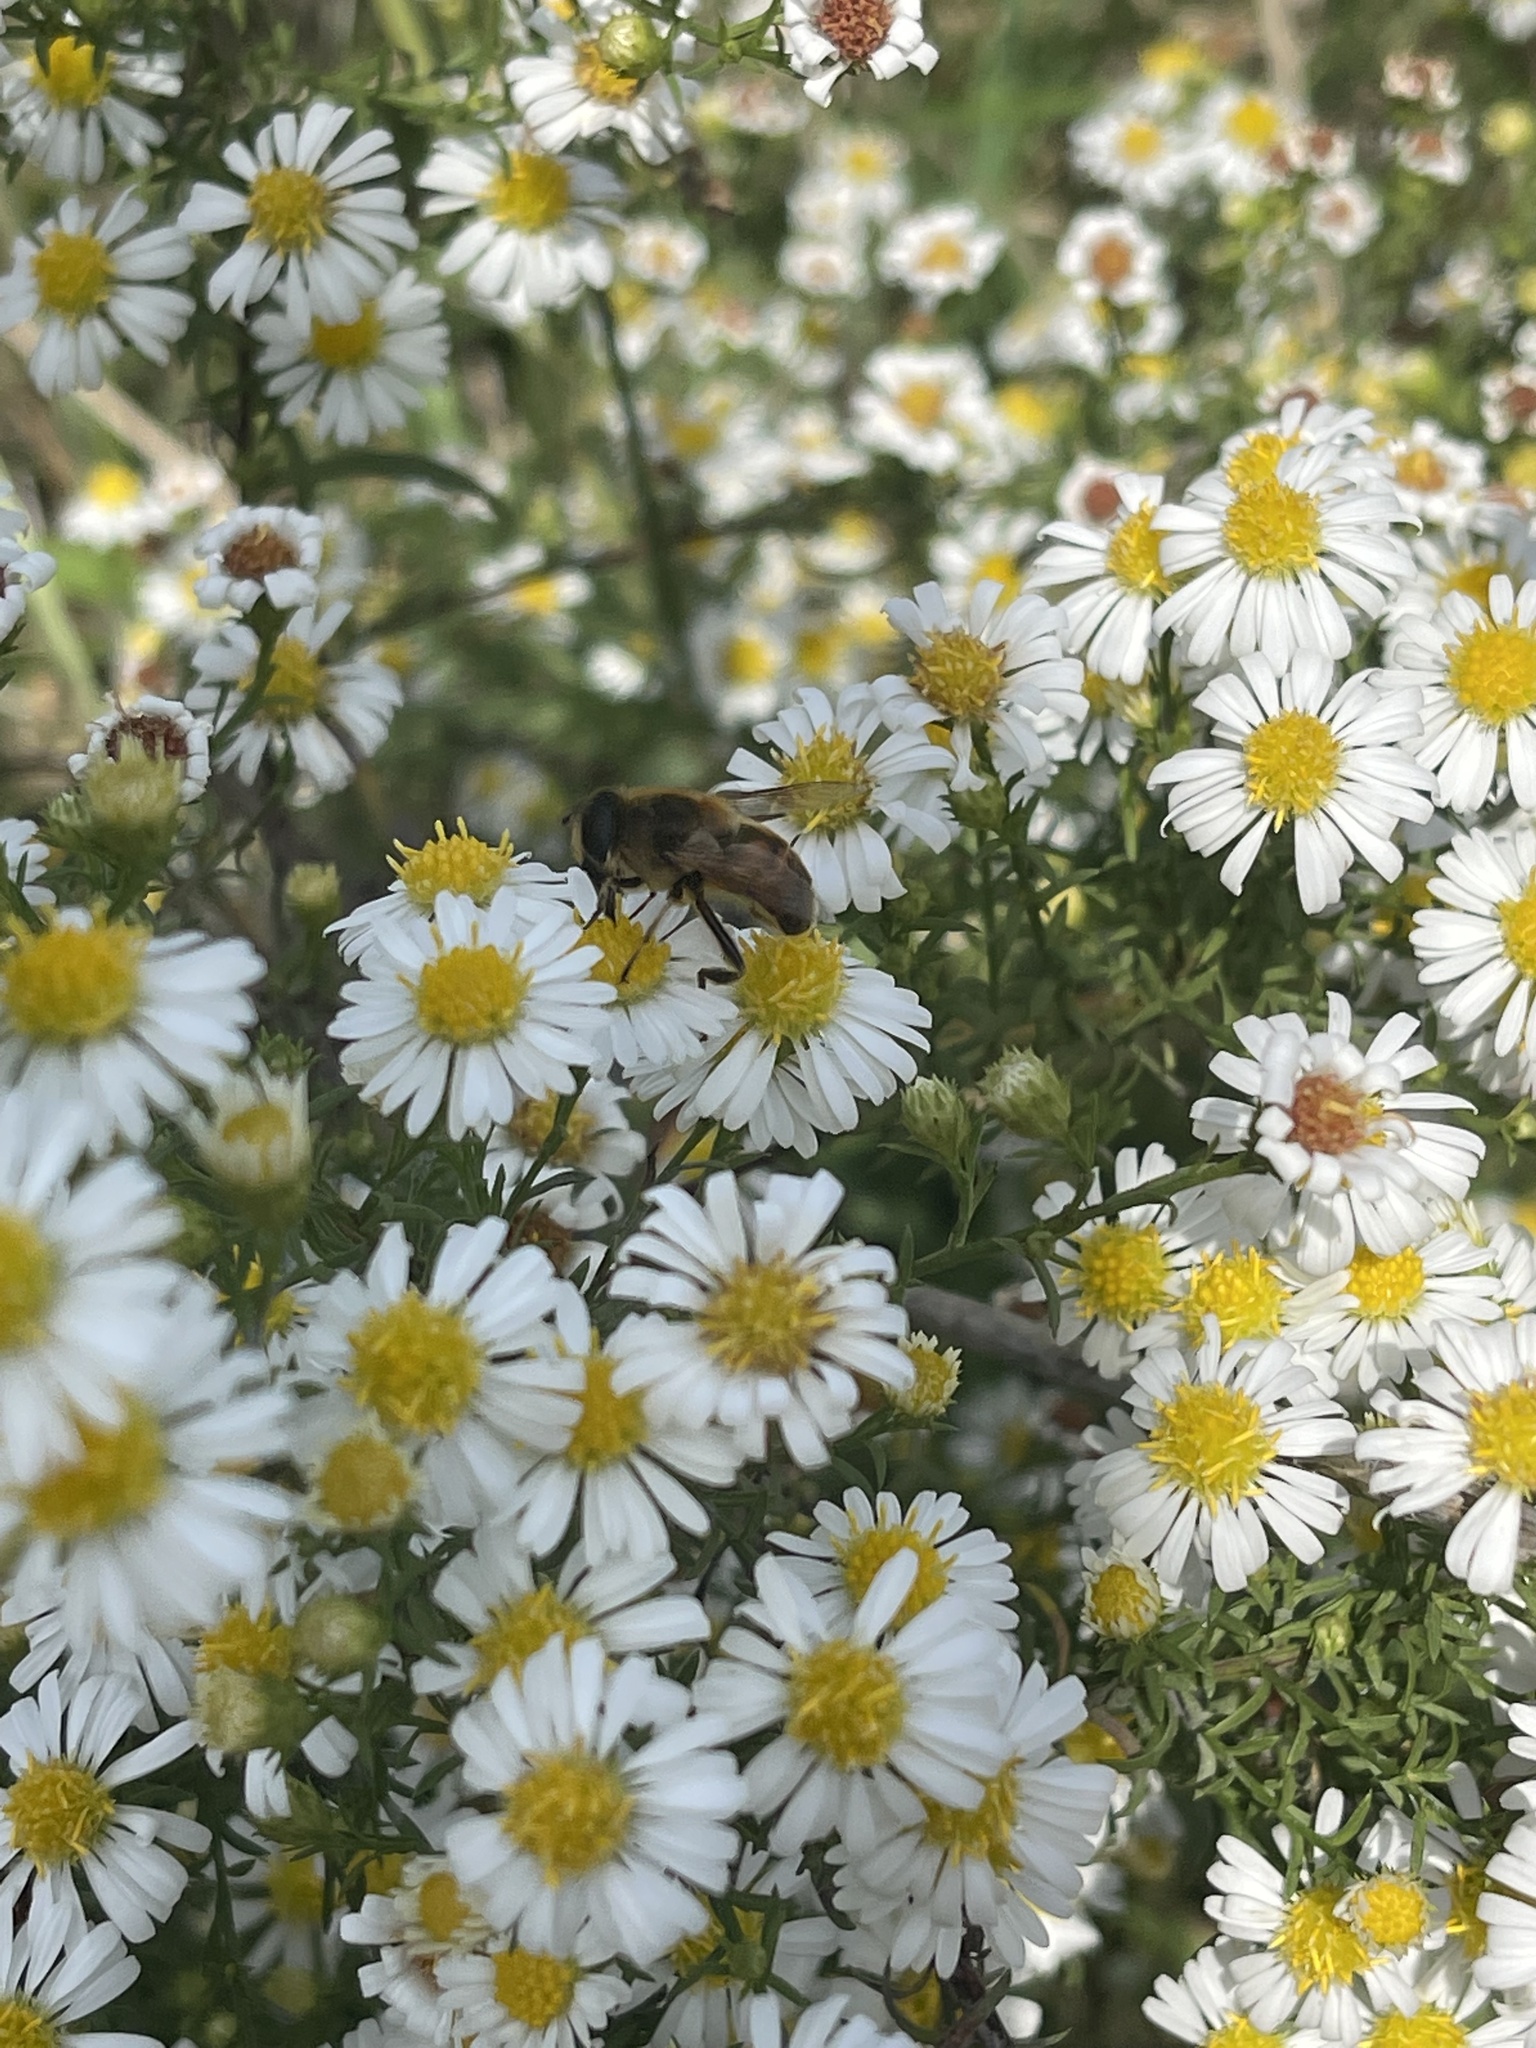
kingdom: Animalia
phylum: Arthropoda
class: Insecta
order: Diptera
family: Syrphidae
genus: Eristalis
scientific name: Eristalis tenax
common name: Drone fly
